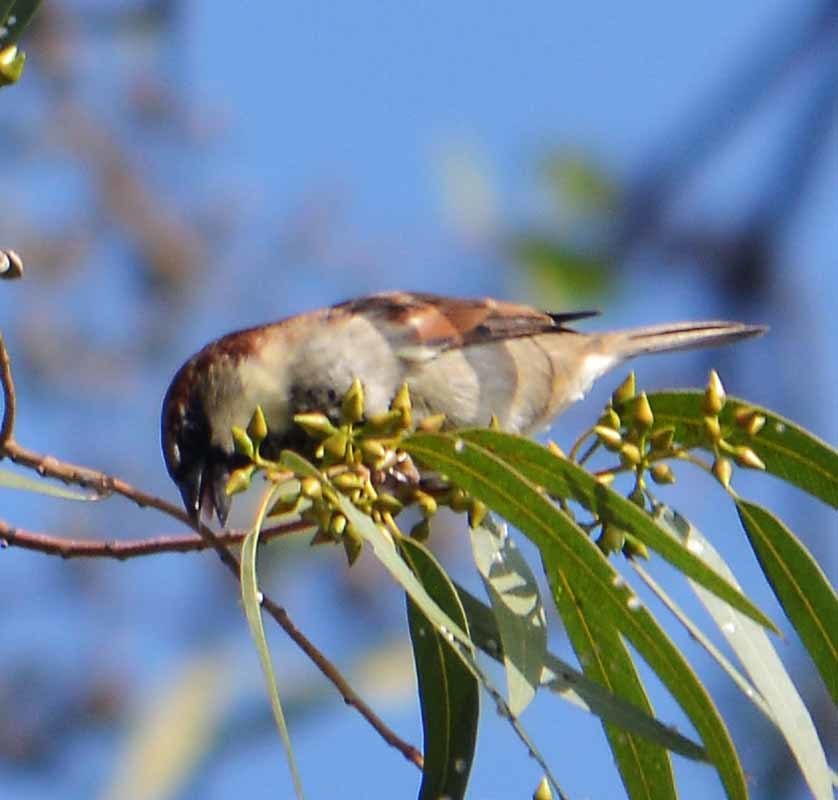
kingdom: Animalia
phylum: Chordata
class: Aves
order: Passeriformes
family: Passeridae
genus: Passer
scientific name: Passer domesticus
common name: House sparrow
